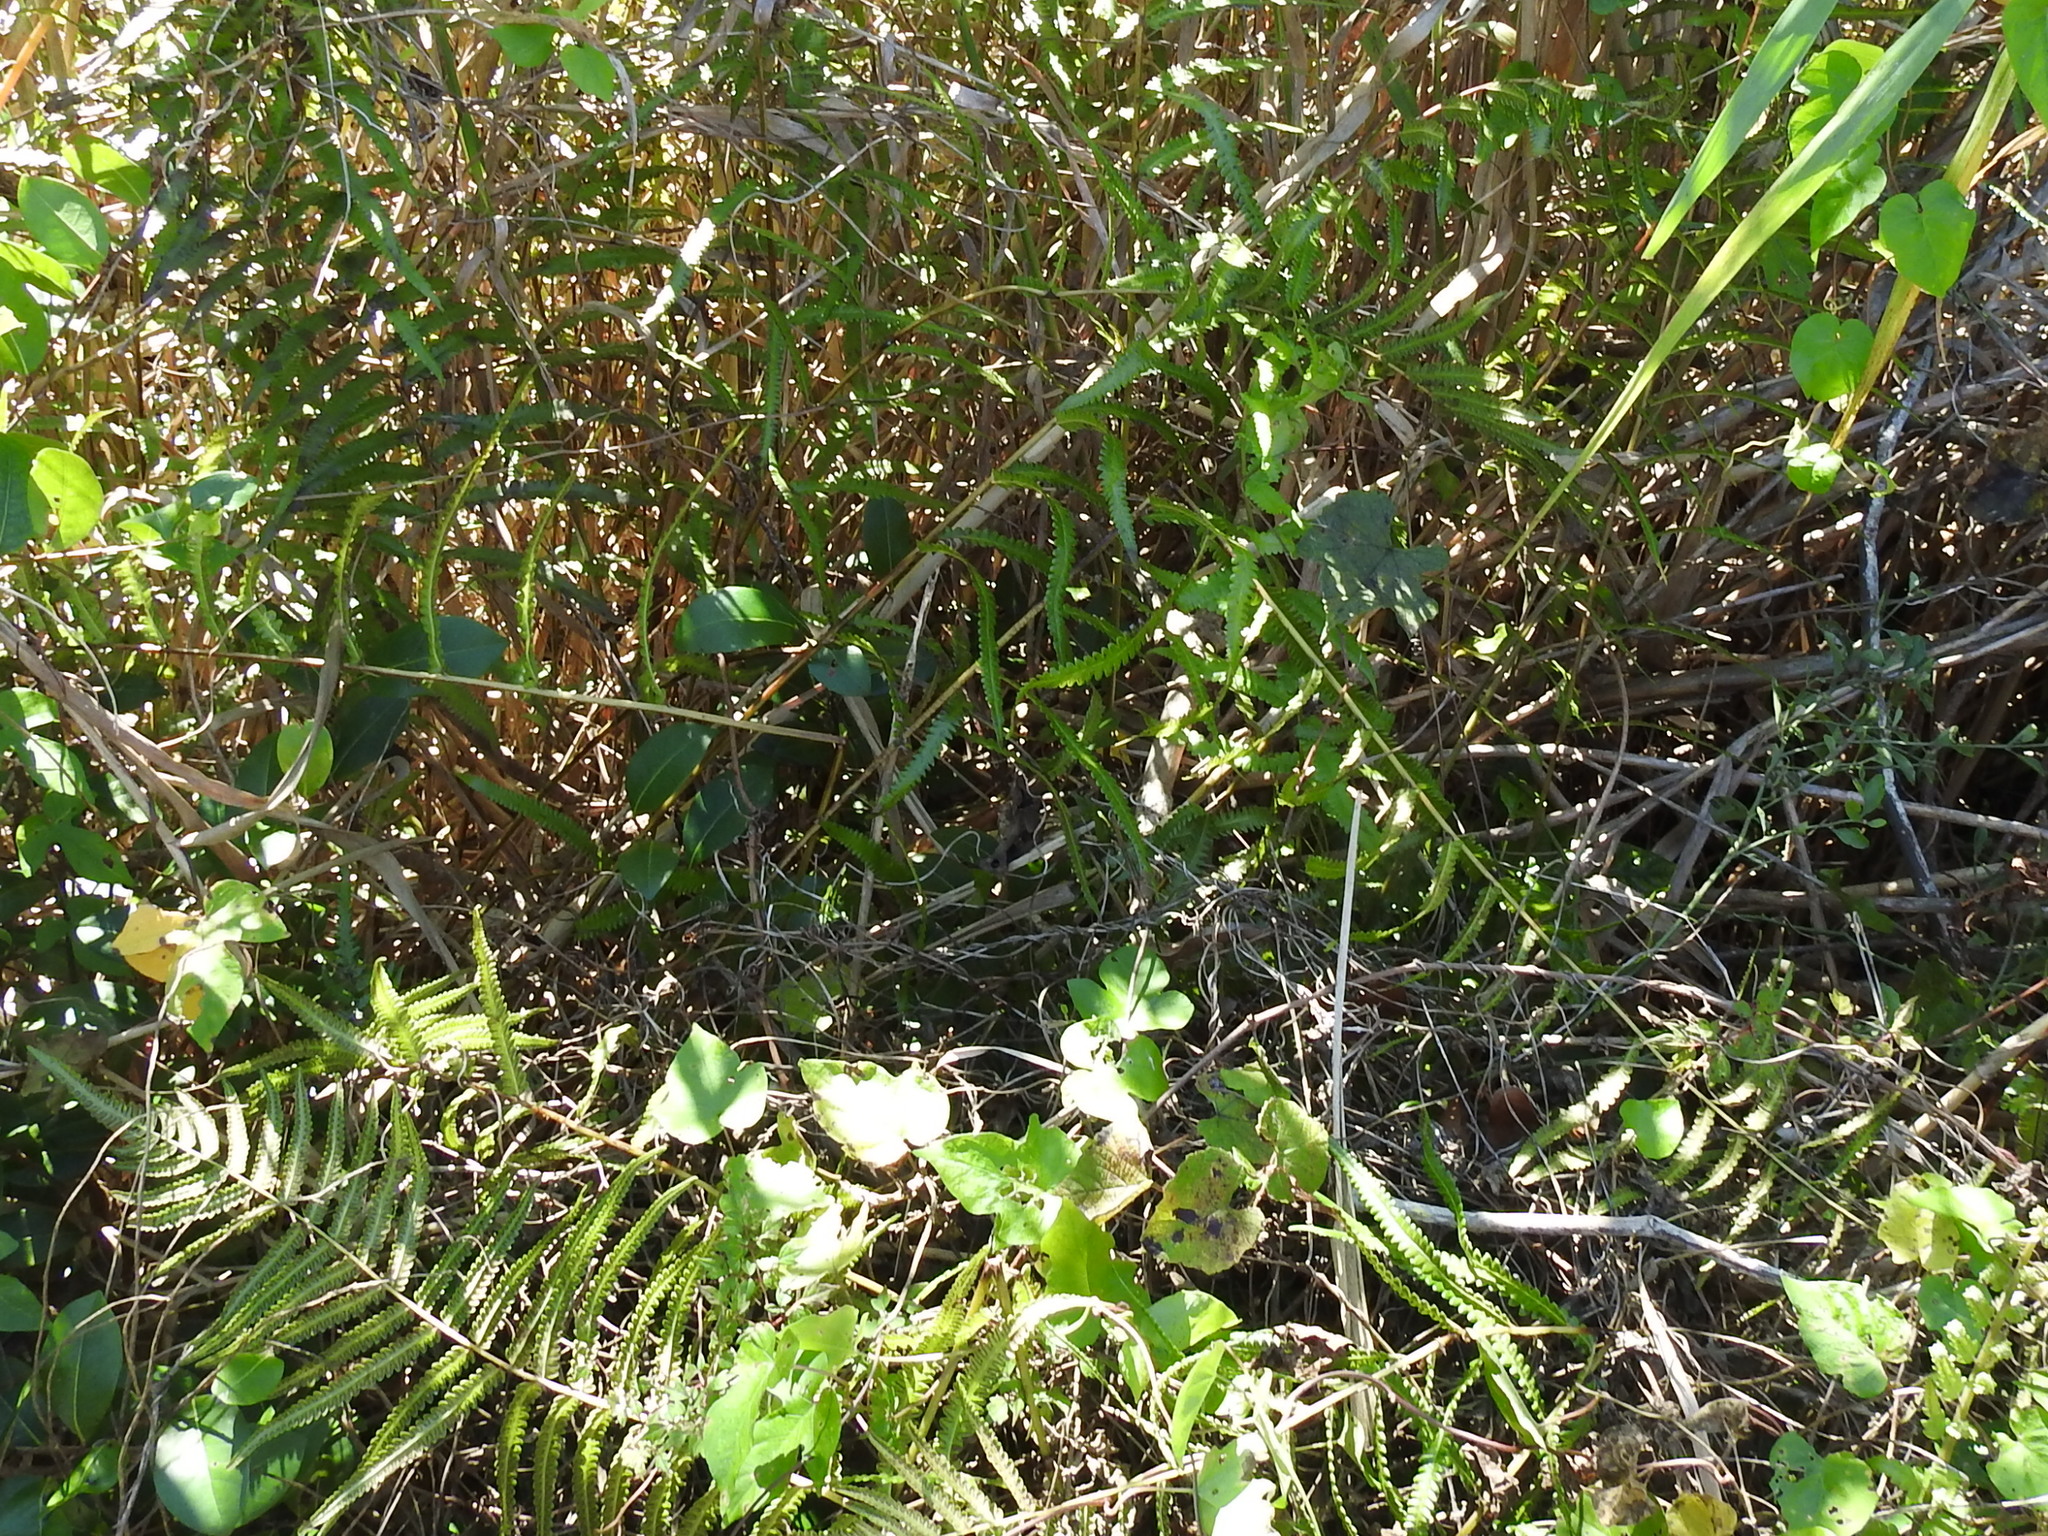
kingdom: Plantae
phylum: Tracheophyta
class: Polypodiopsida
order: Polypodiales
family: Thelypteridaceae
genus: Cyclosorus
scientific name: Cyclosorus interruptus
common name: Neke fern
